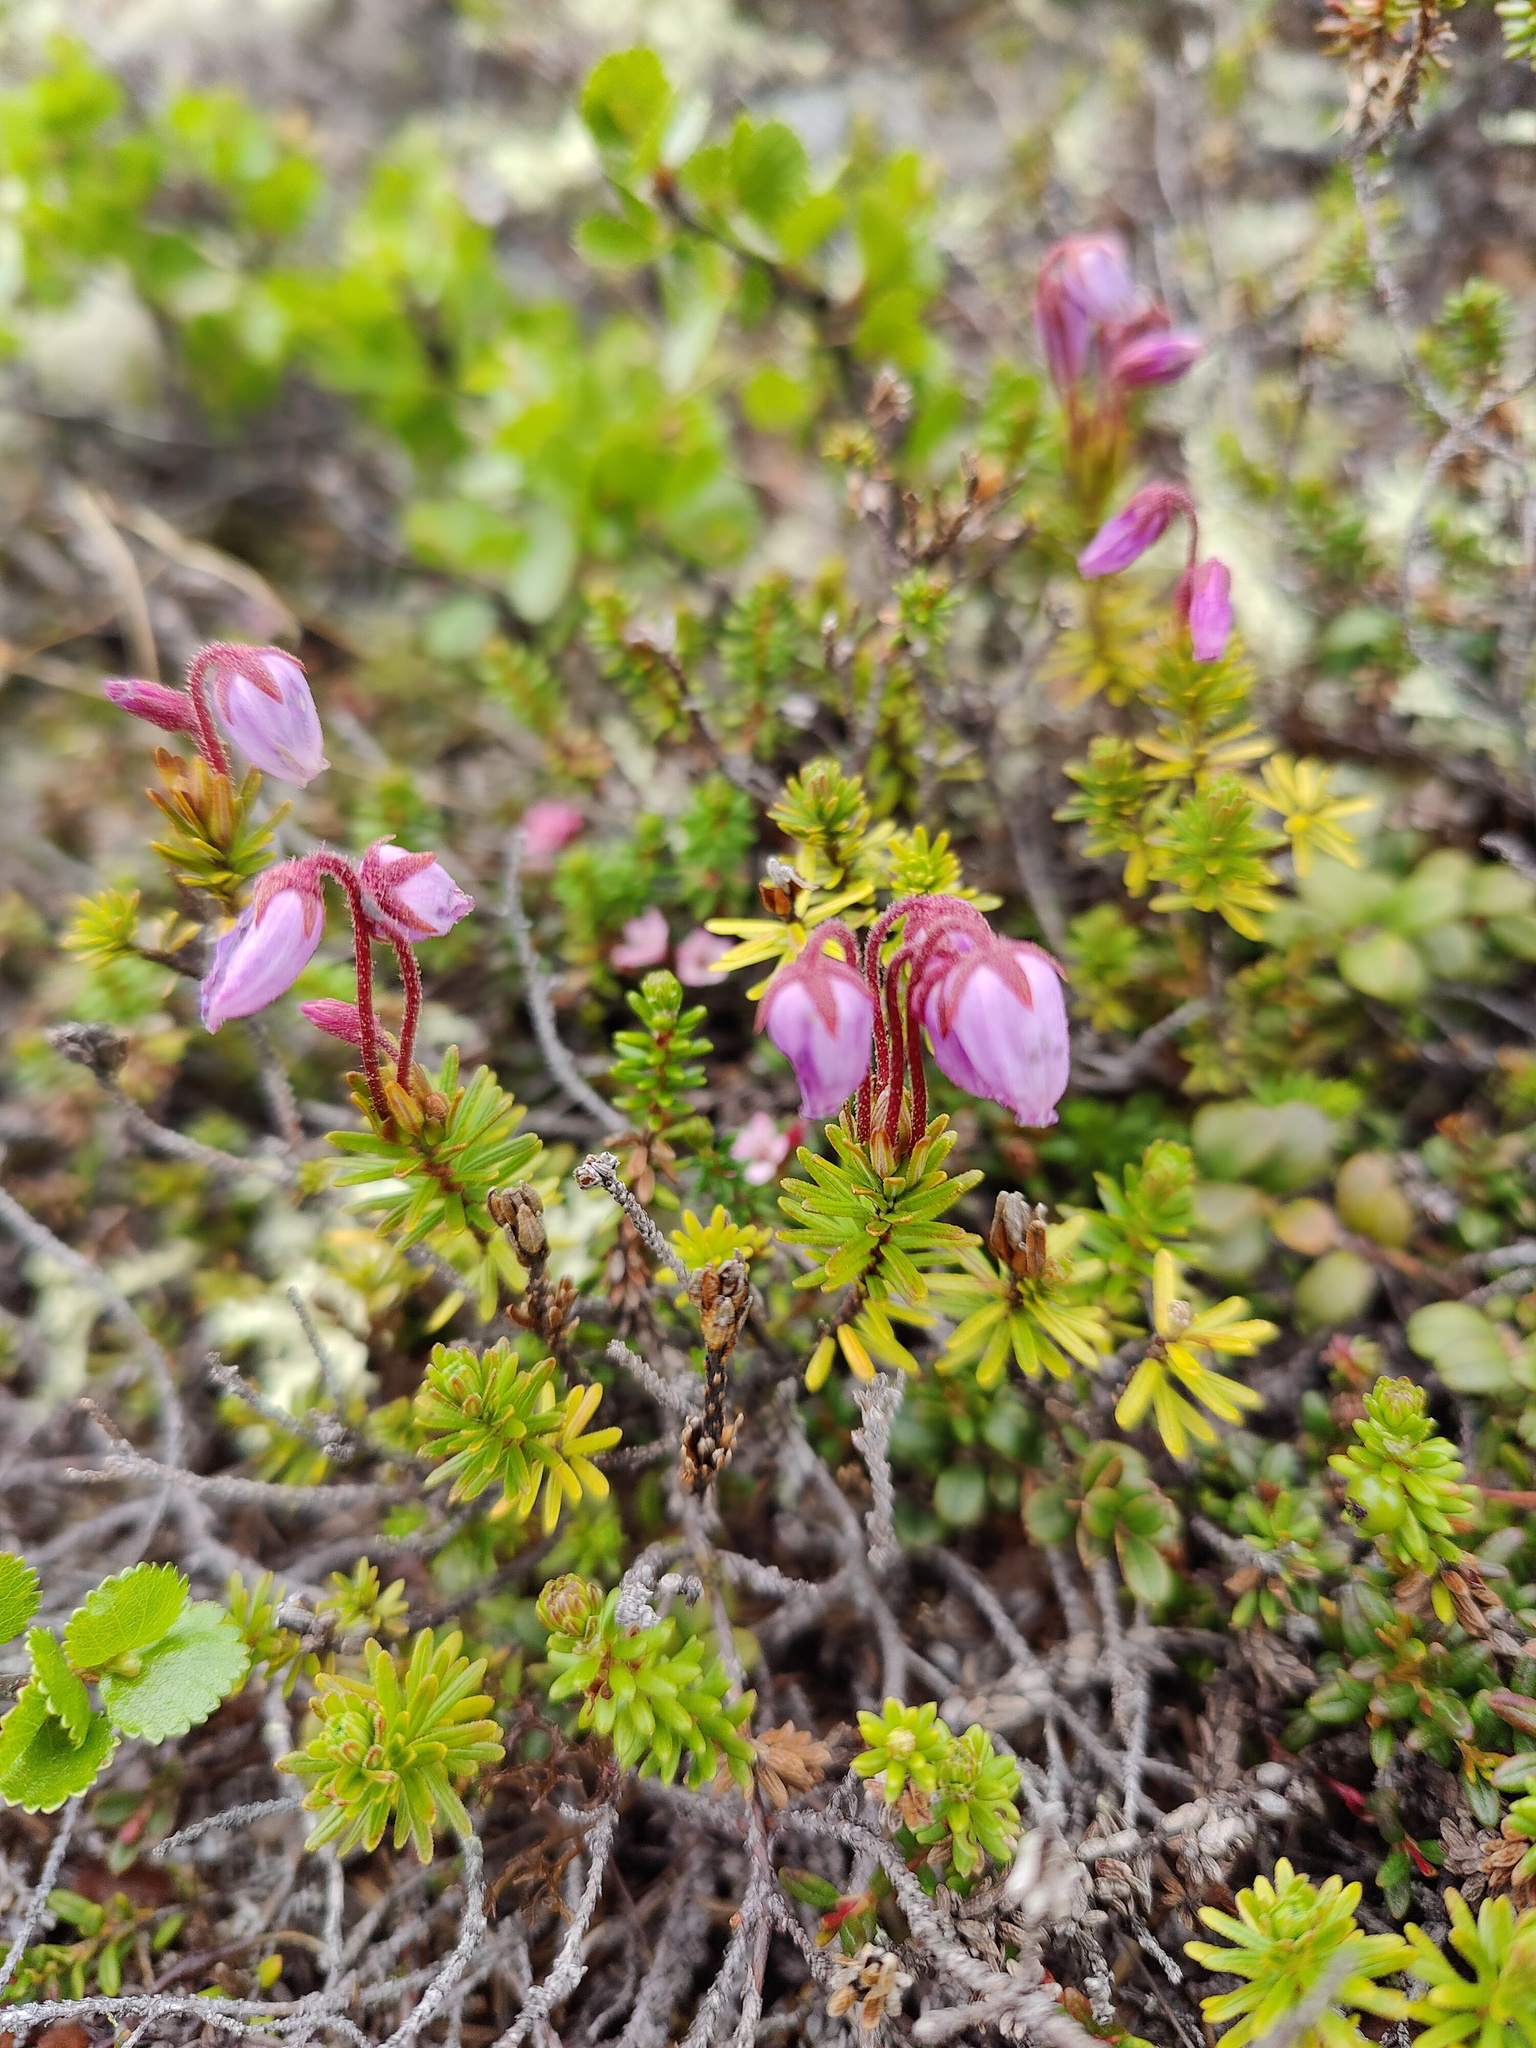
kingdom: Plantae
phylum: Tracheophyta
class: Magnoliopsida
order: Ericales
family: Ericaceae
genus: Phyllodoce
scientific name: Phyllodoce caerulea
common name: Blue heath
